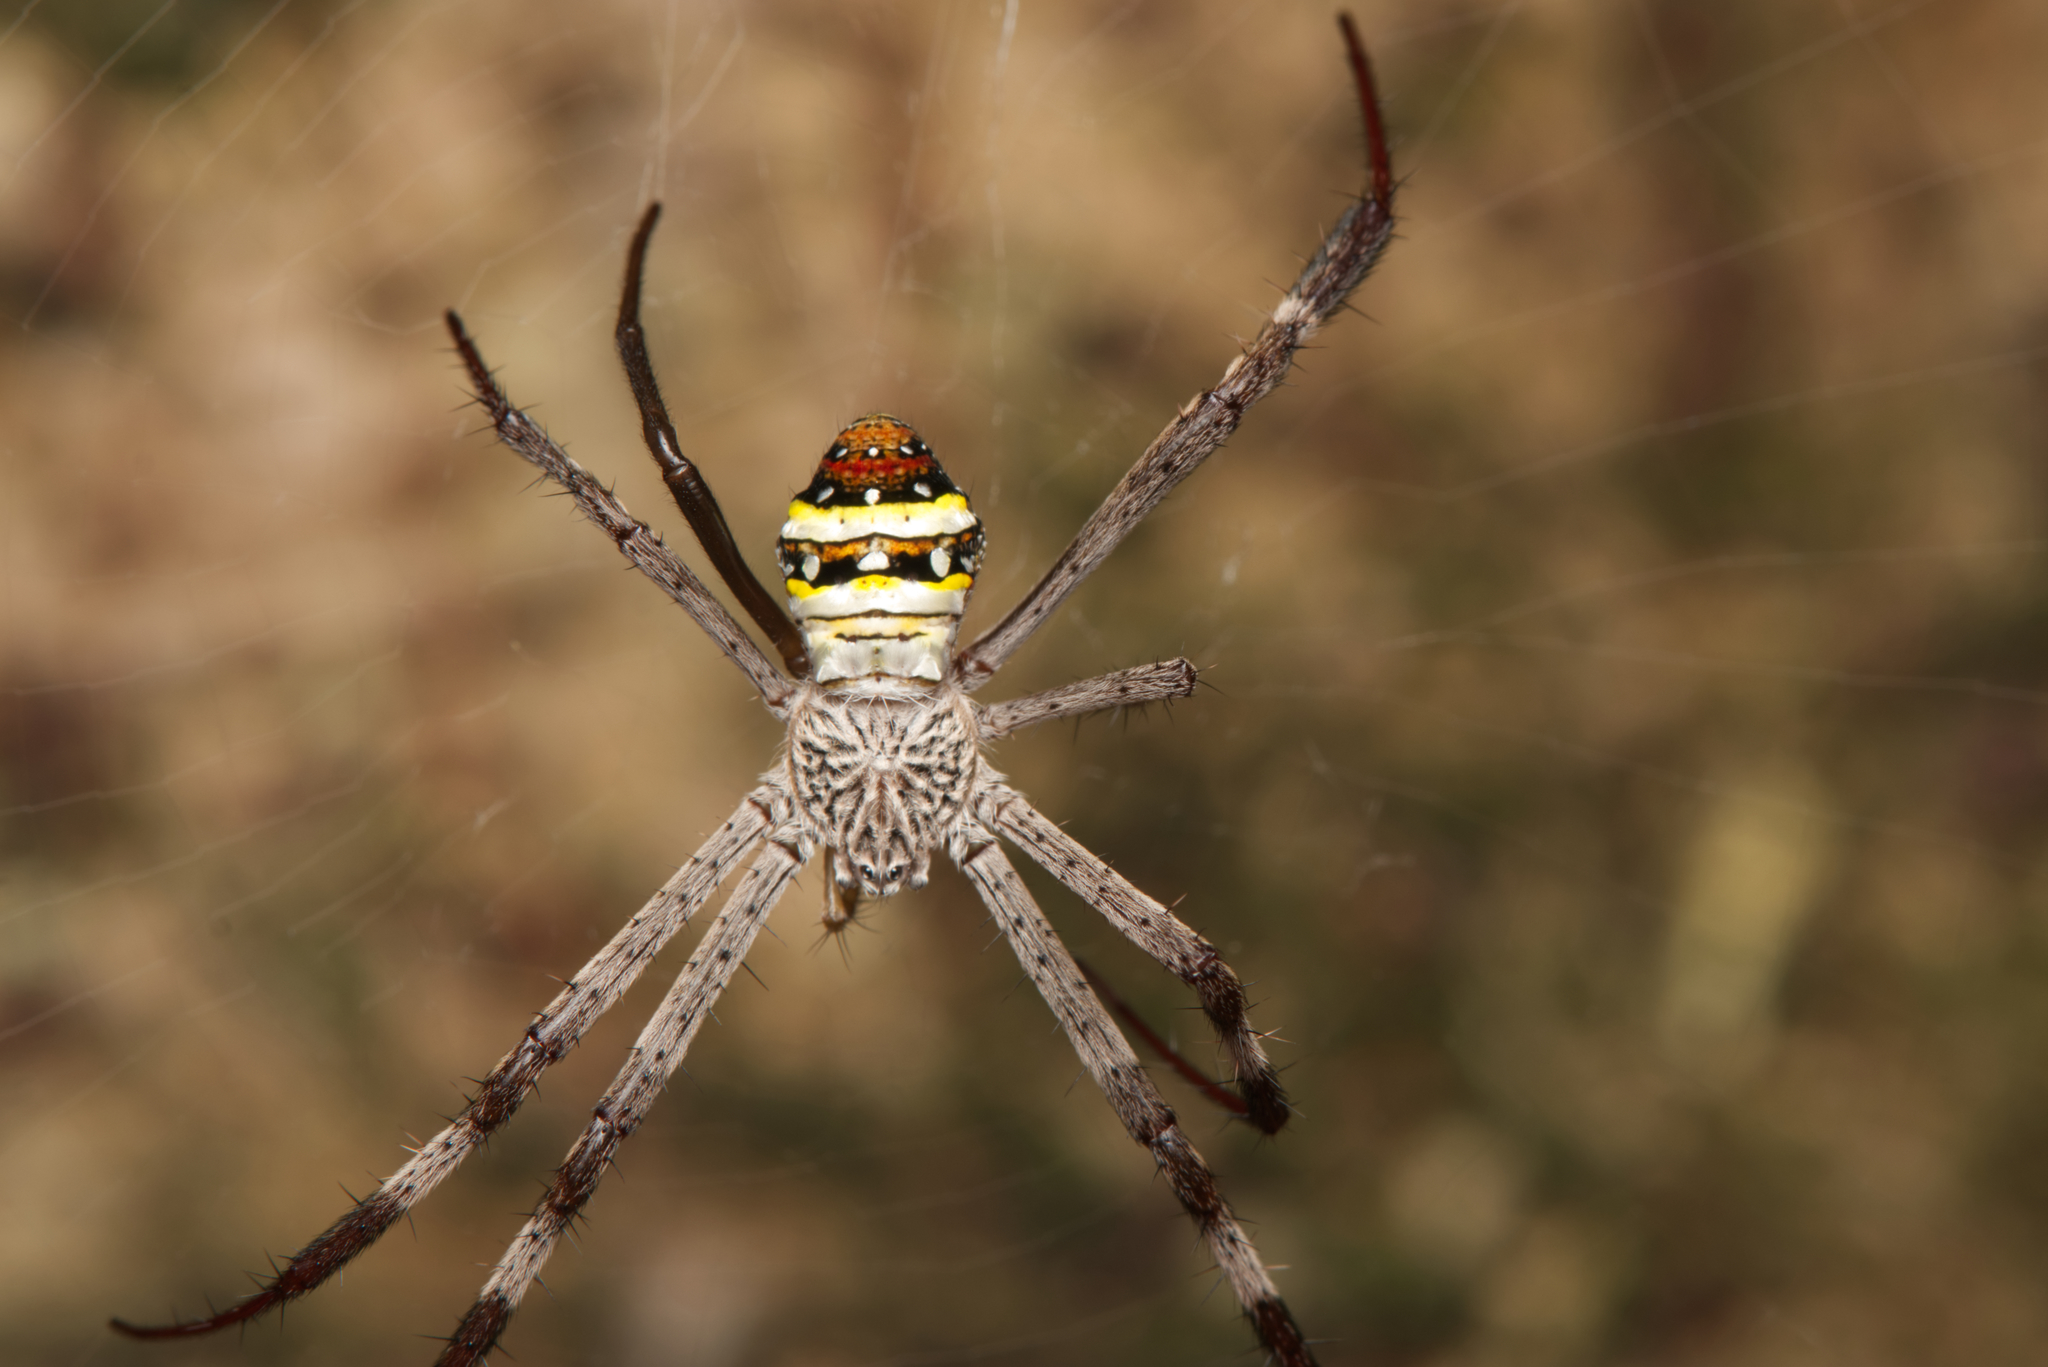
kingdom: Animalia
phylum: Arthropoda
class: Arachnida
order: Araneae
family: Araneidae
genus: Argiope
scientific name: Argiope aetherea
